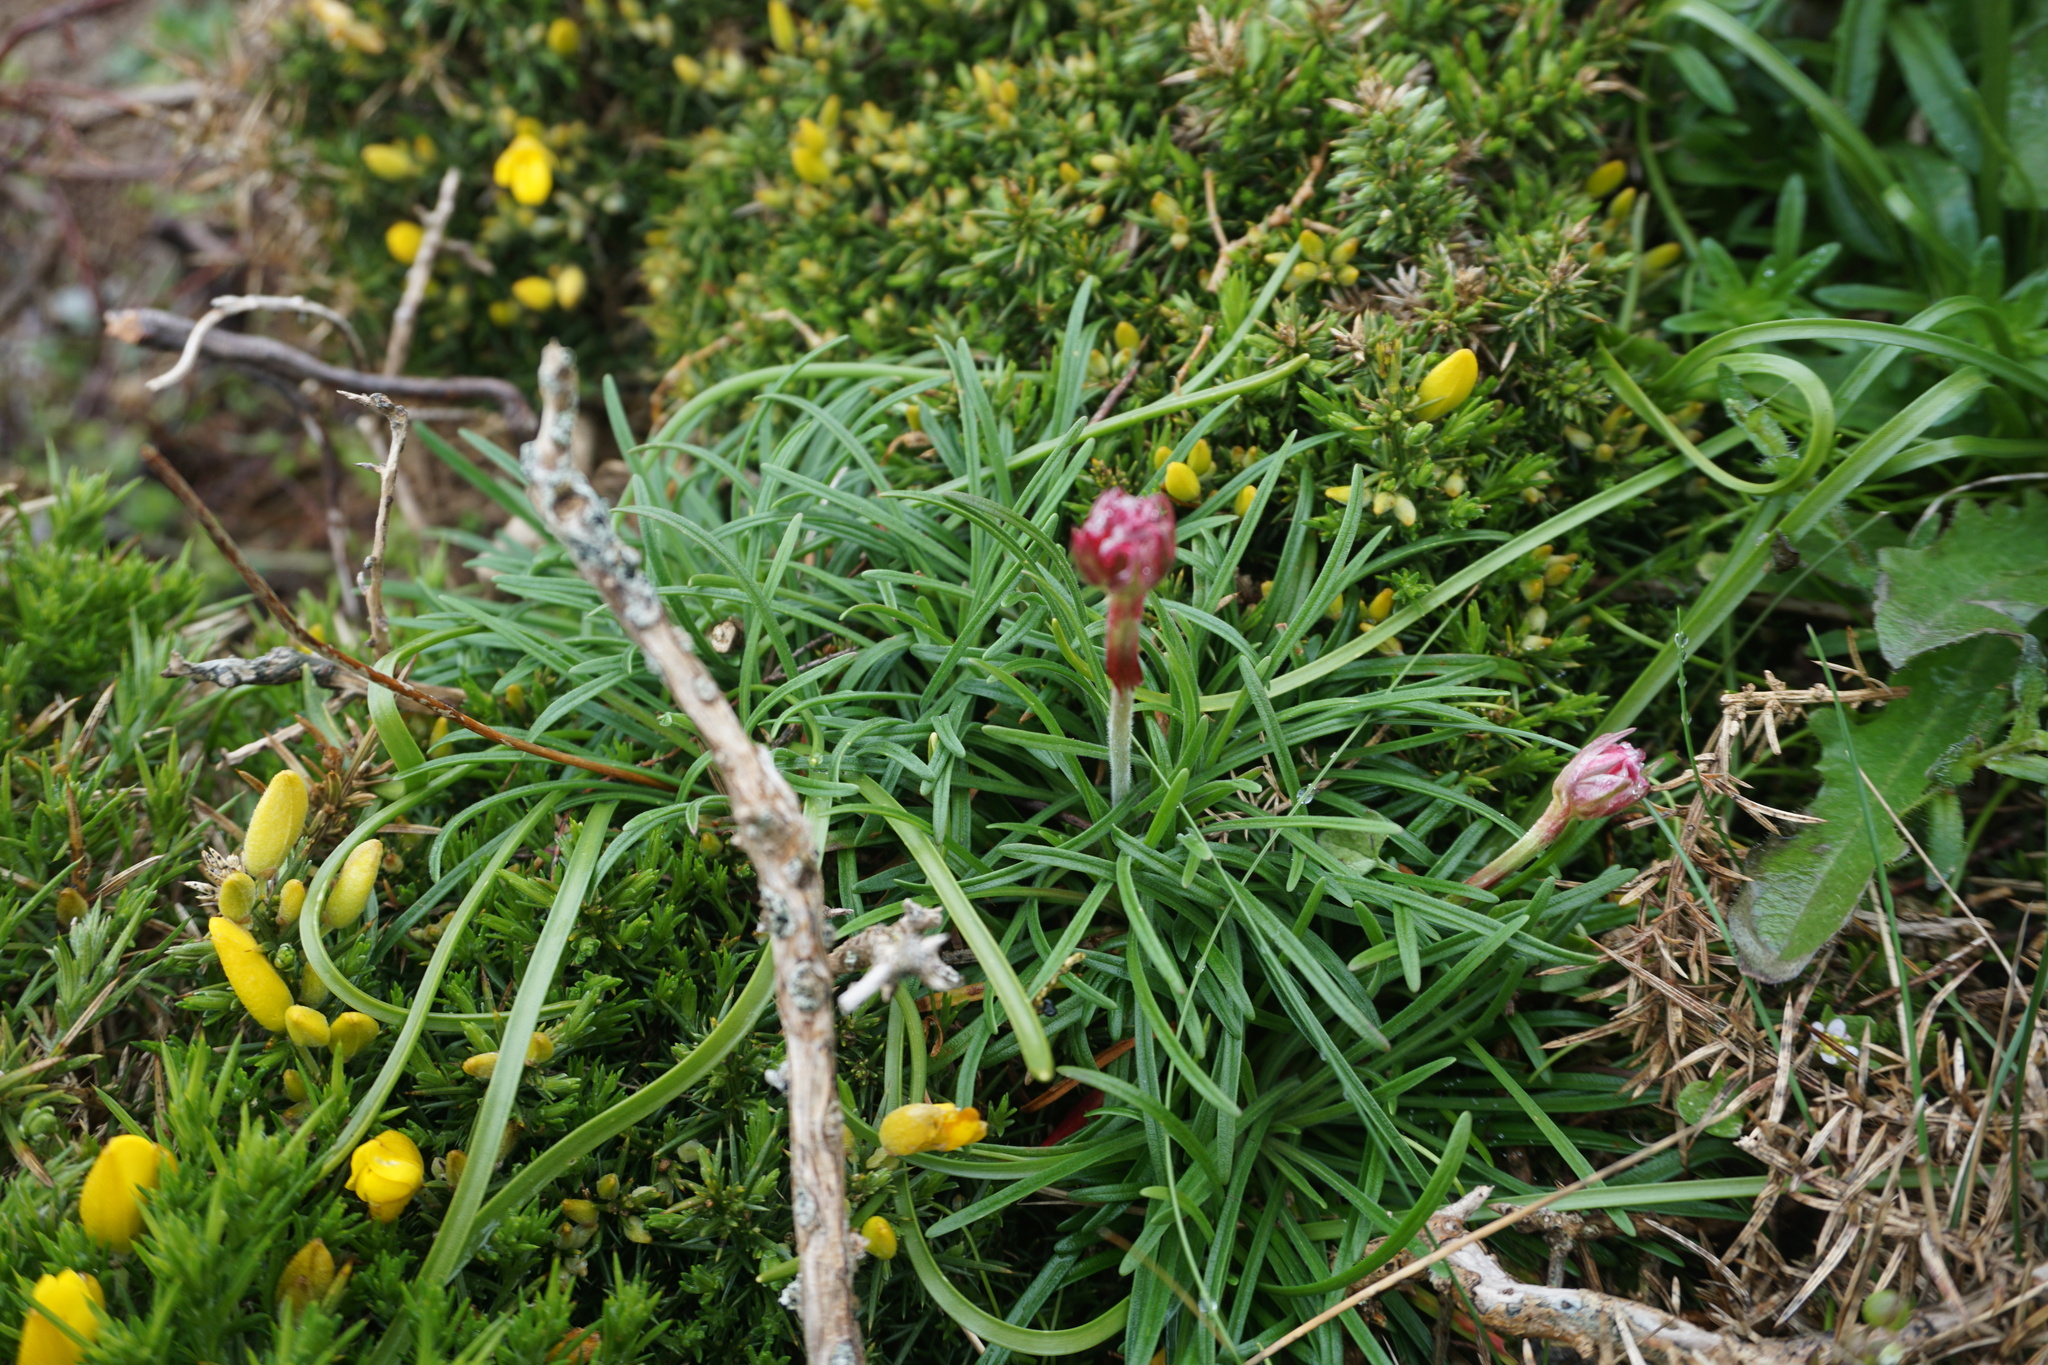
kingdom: Plantae
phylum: Tracheophyta
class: Magnoliopsida
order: Caryophyllales
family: Plumbaginaceae
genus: Armeria
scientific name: Armeria maritima
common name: Thrift
